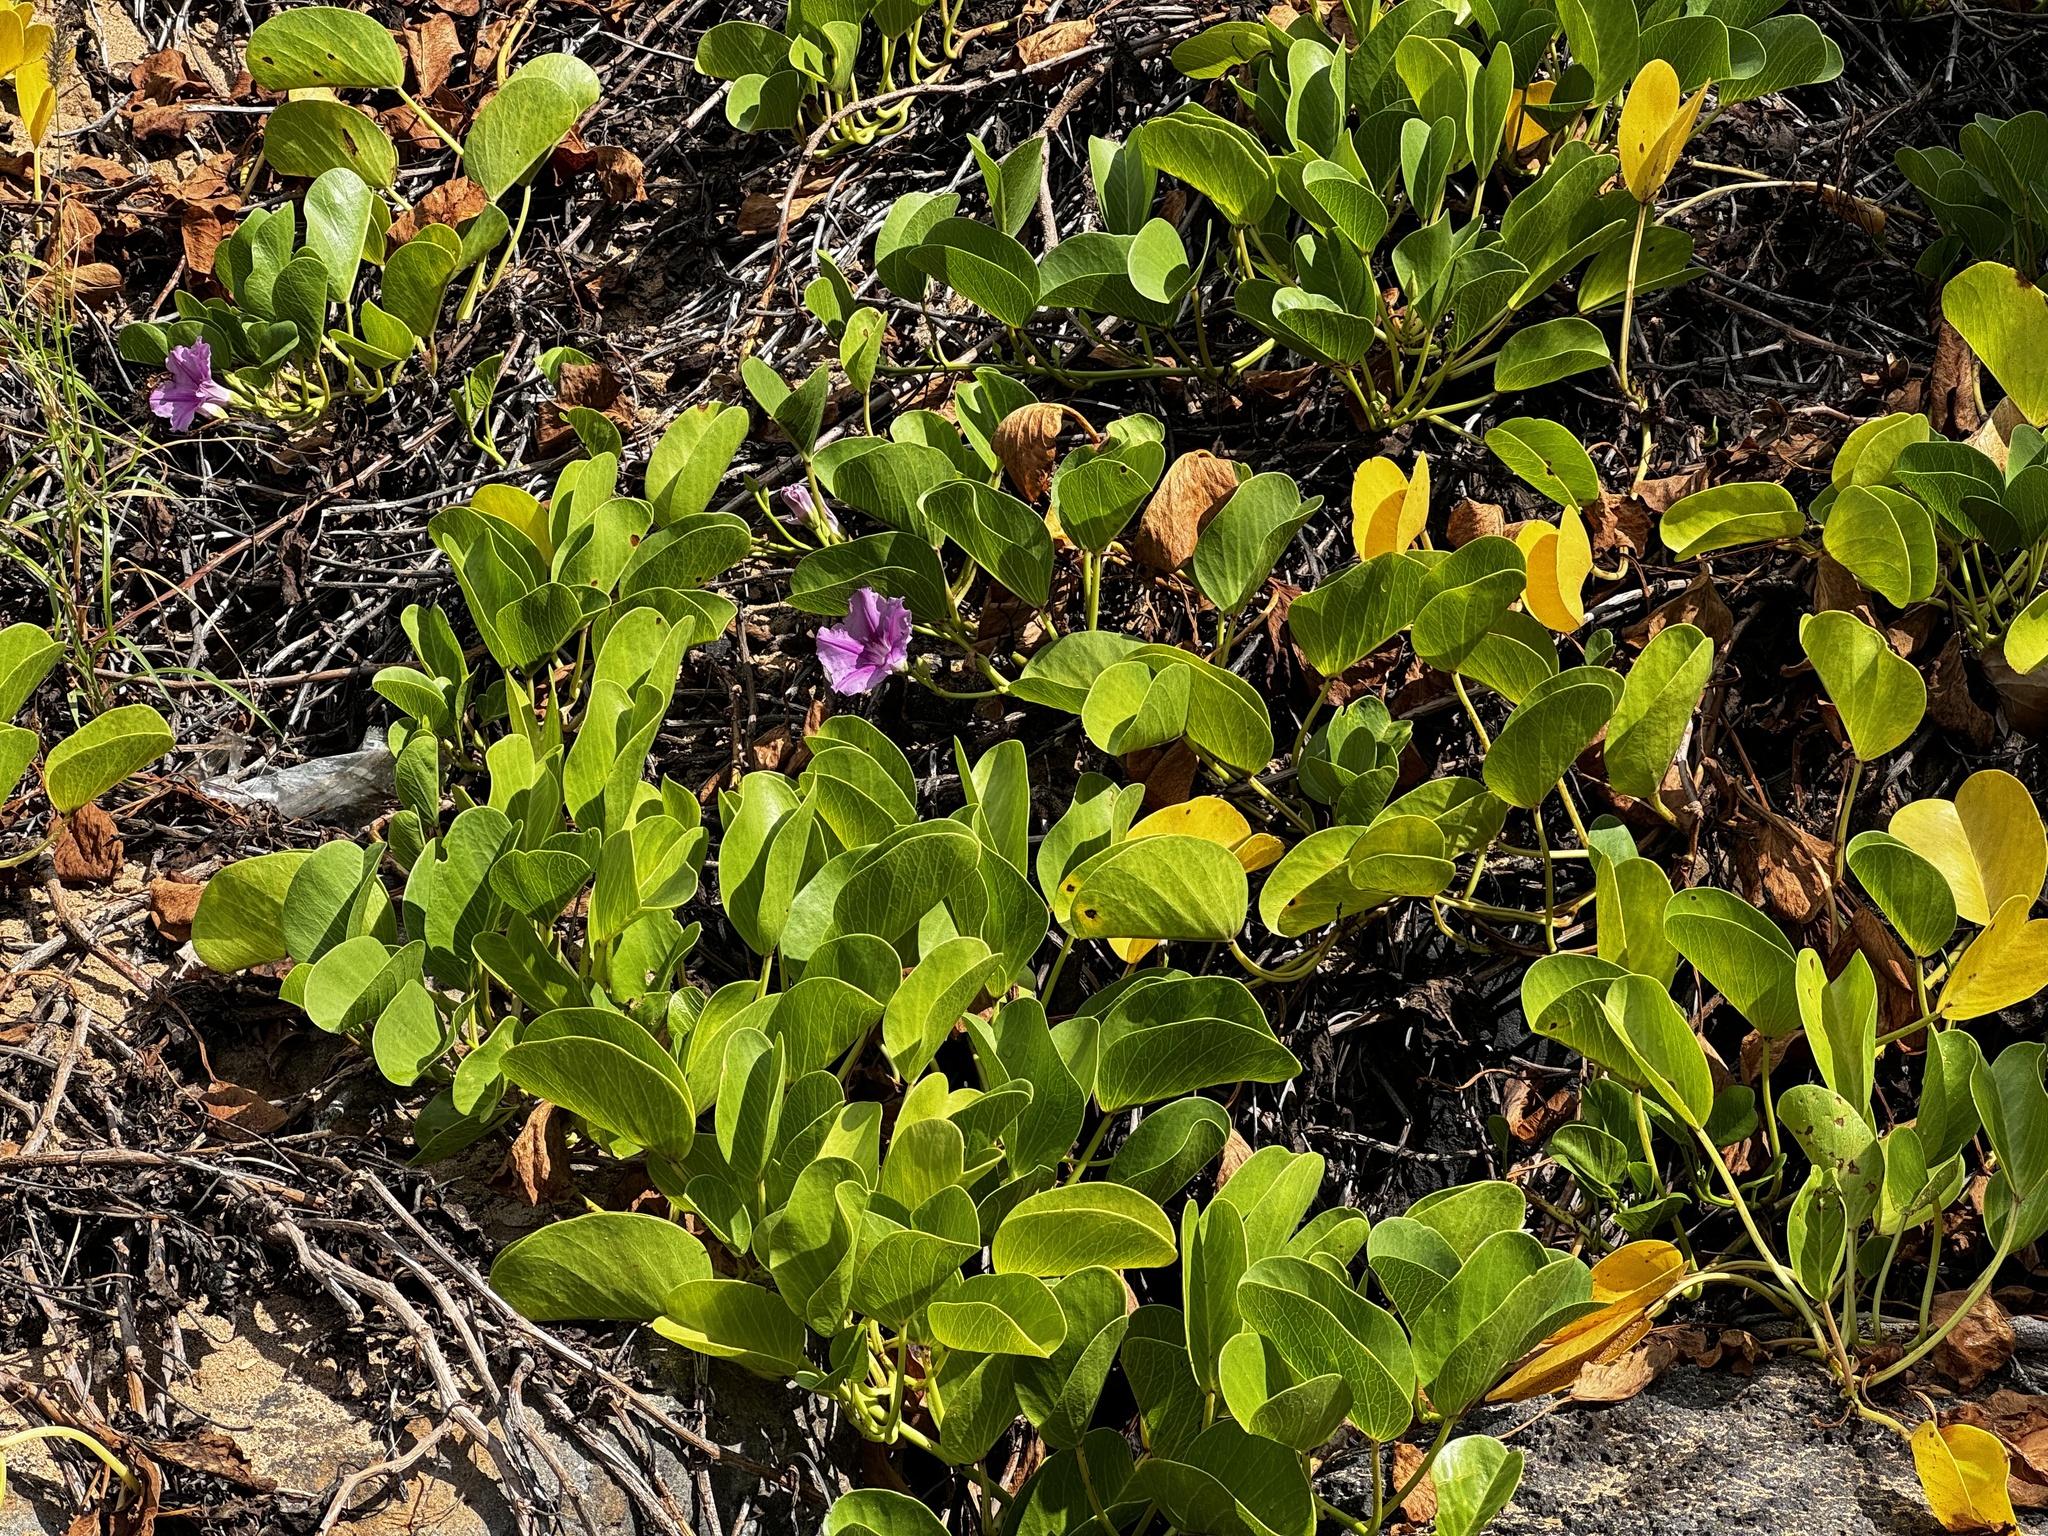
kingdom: Plantae
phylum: Tracheophyta
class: Magnoliopsida
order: Solanales
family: Convolvulaceae
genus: Ipomoea
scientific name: Ipomoea pes-caprae
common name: Beach morning glory
